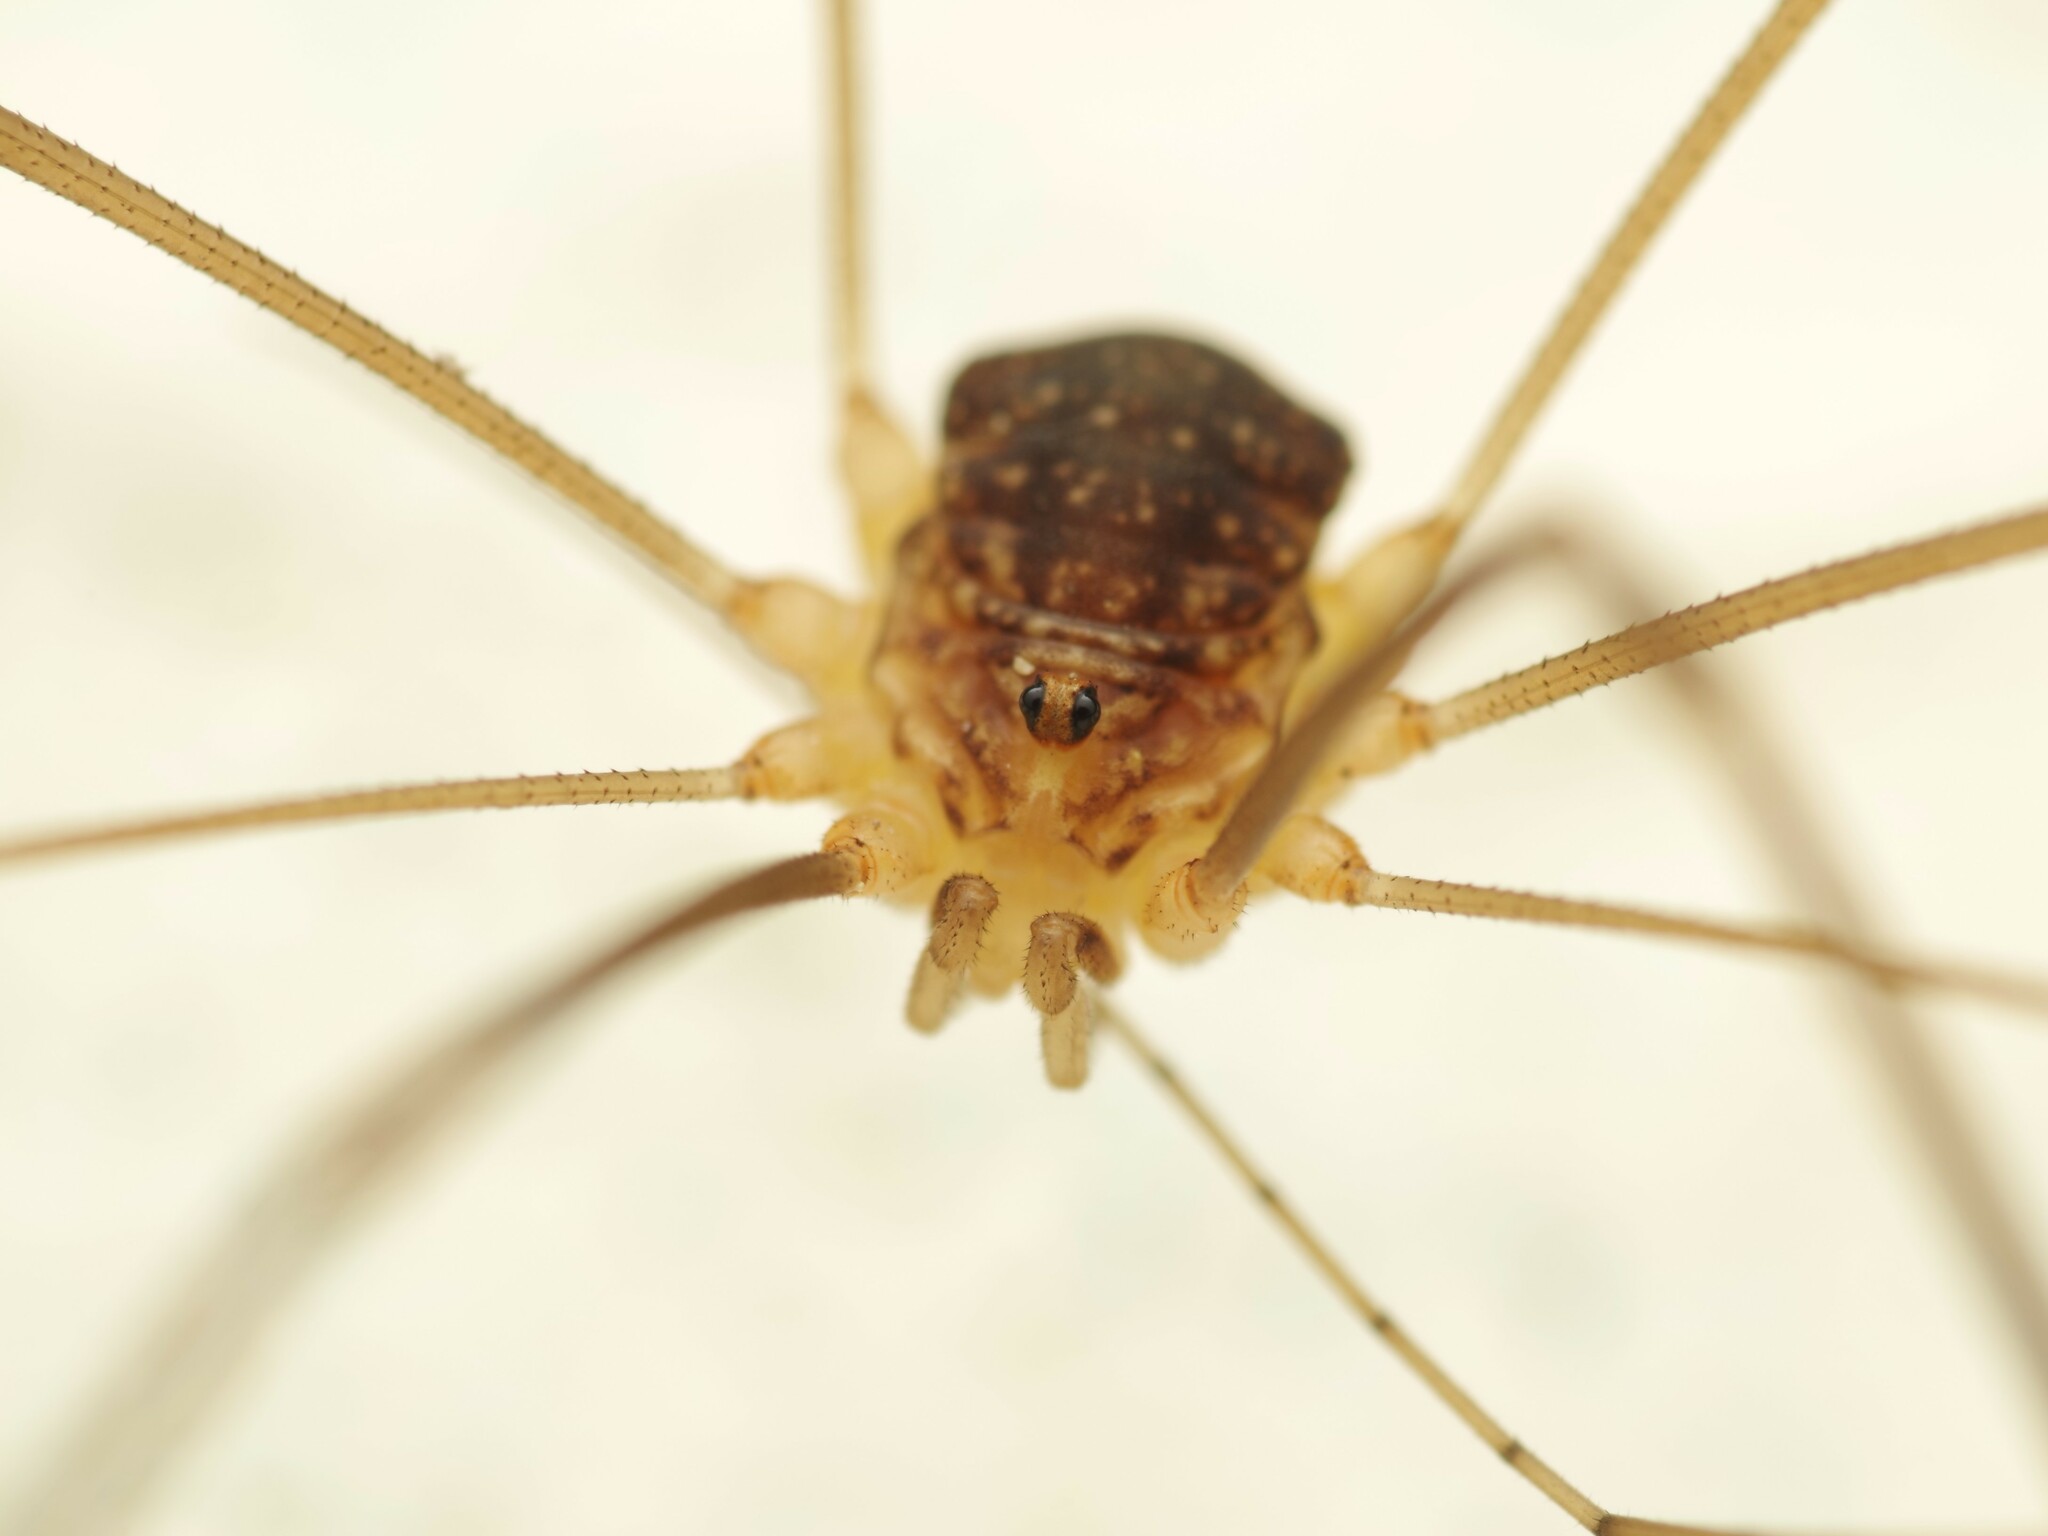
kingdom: Animalia
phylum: Arthropoda
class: Arachnida
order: Opiliones
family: Sclerosomatidae
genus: Nelima
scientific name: Nelima gothica
